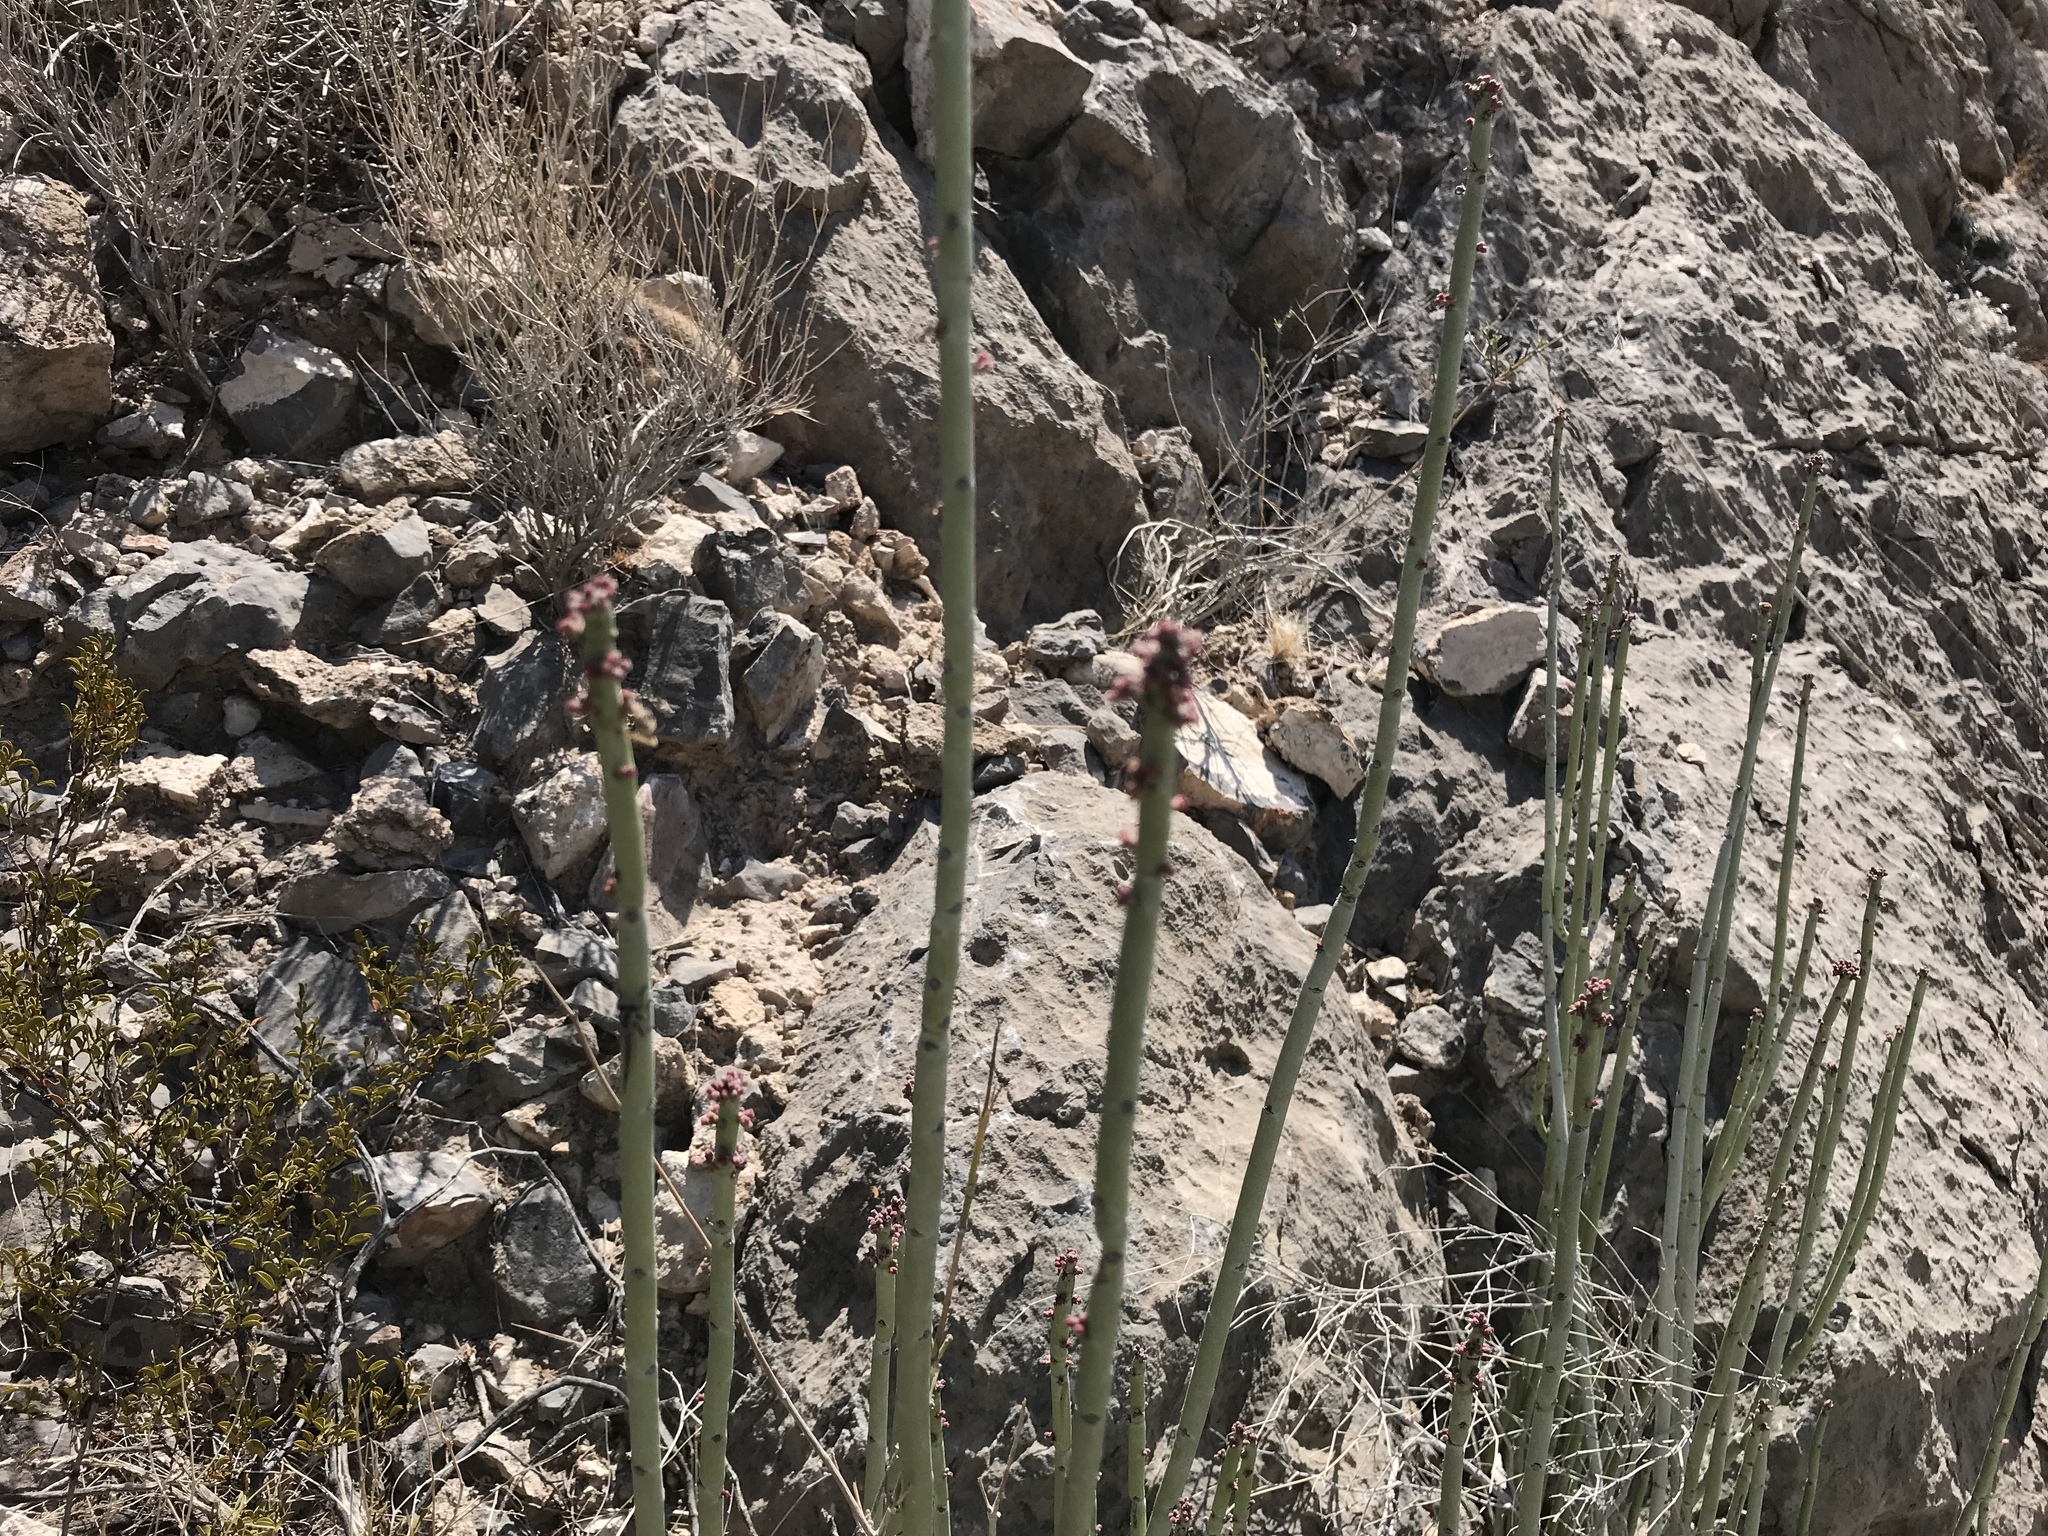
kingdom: Plantae
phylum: Tracheophyta
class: Magnoliopsida
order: Malpighiales
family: Euphorbiaceae
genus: Euphorbia
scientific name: Euphorbia antisyphilitica
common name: Candelilla
